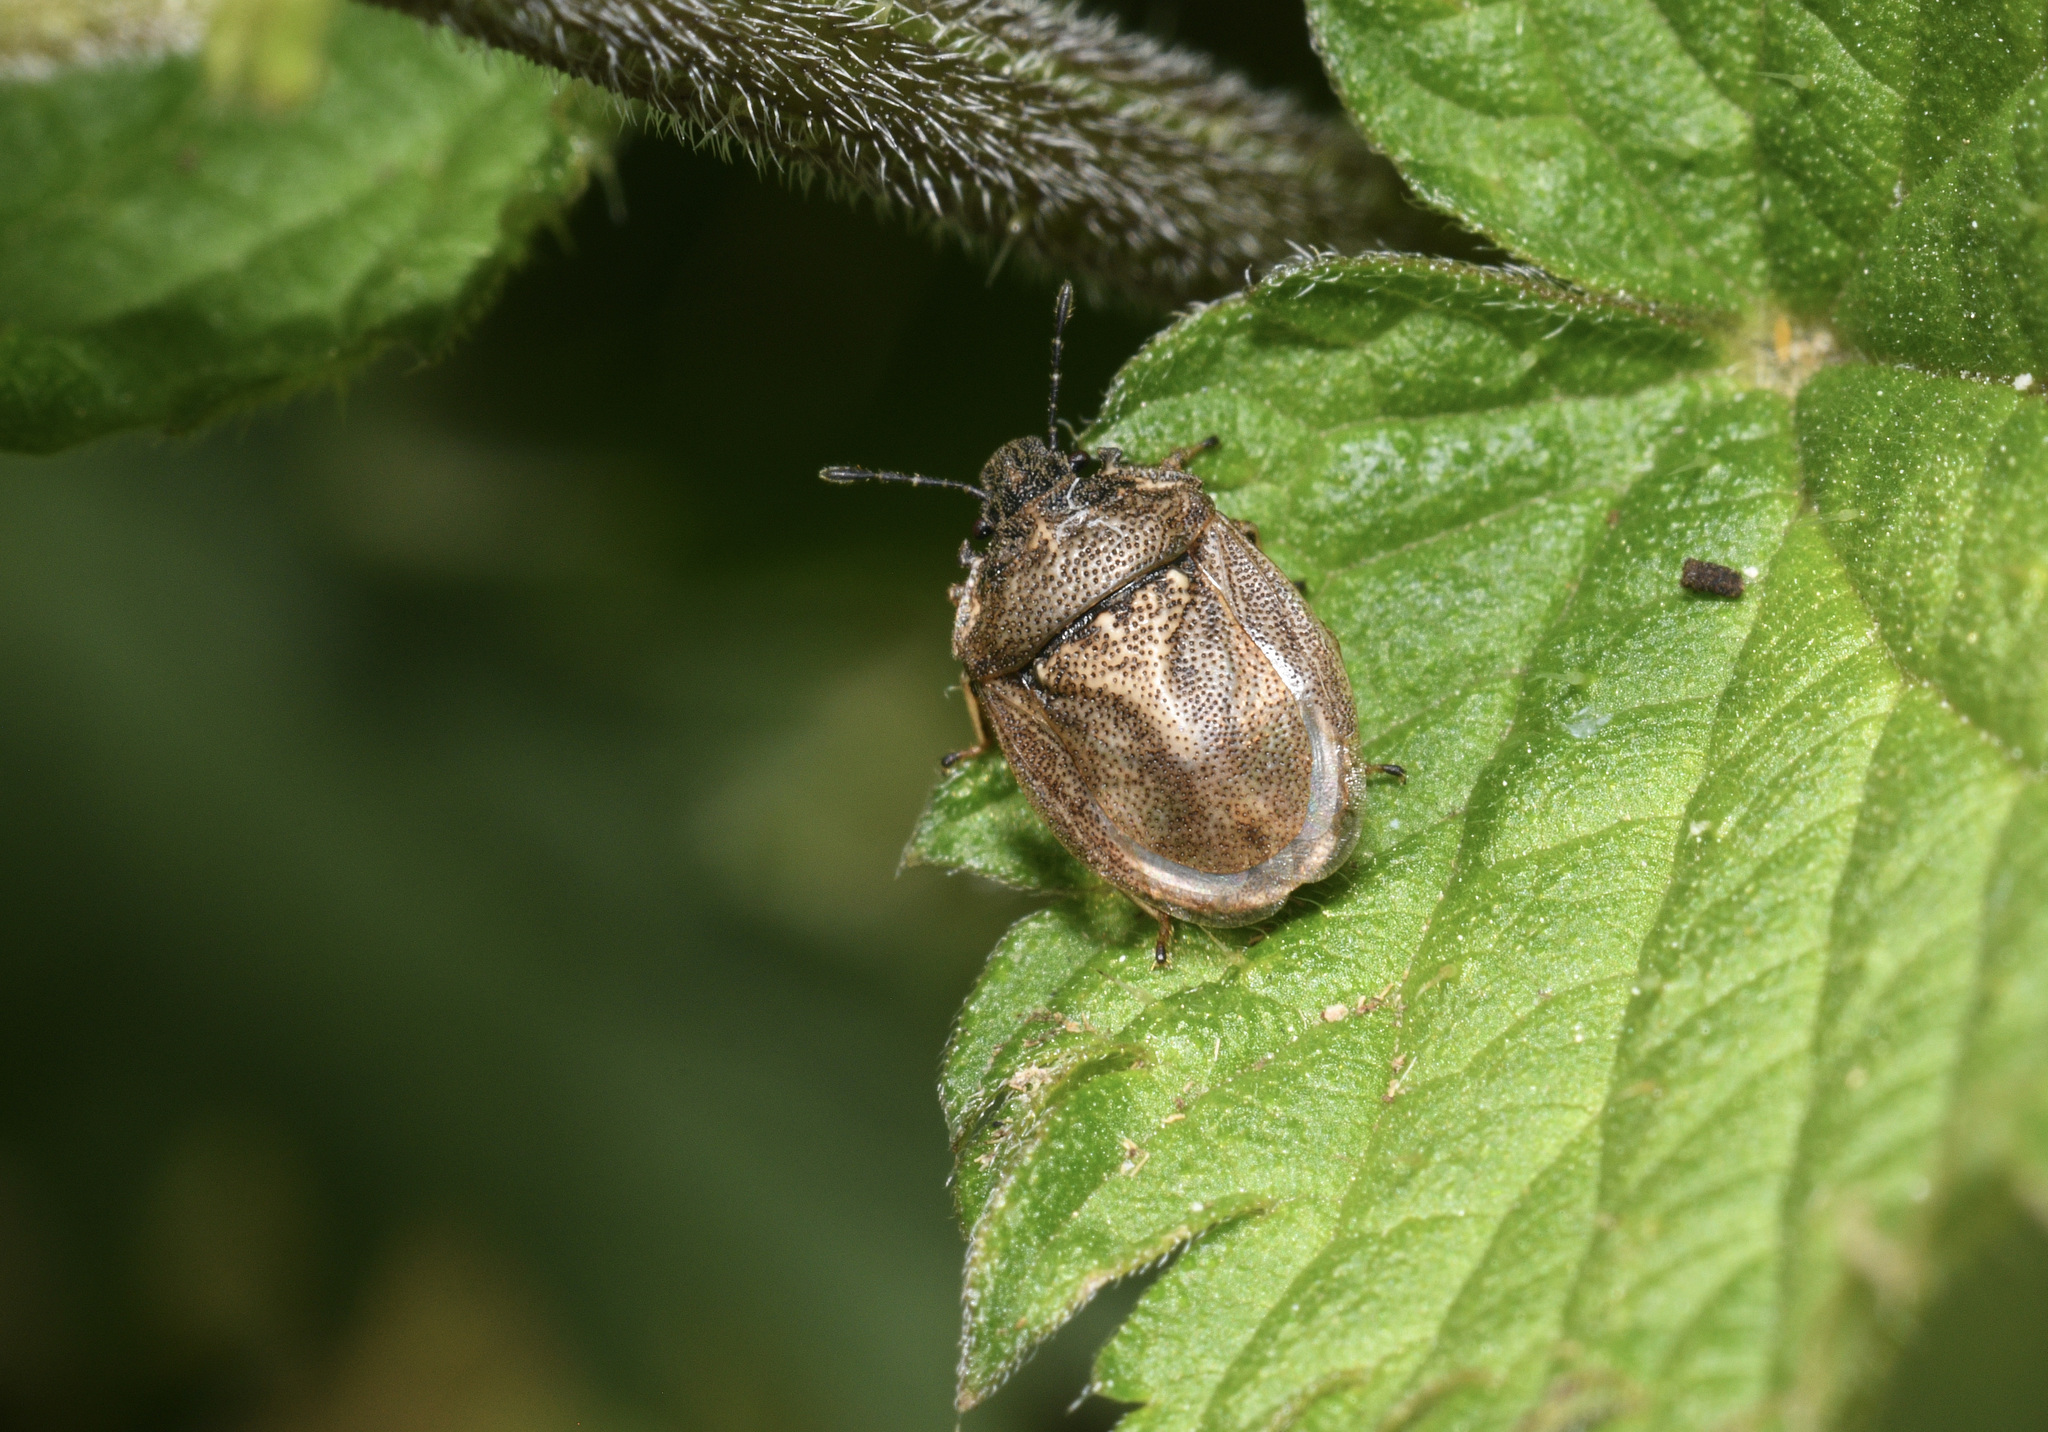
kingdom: Animalia
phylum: Arthropoda
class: Insecta
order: Hemiptera
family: Pentatomidae
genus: Podops
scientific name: Podops inunctus
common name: Turtle bug
